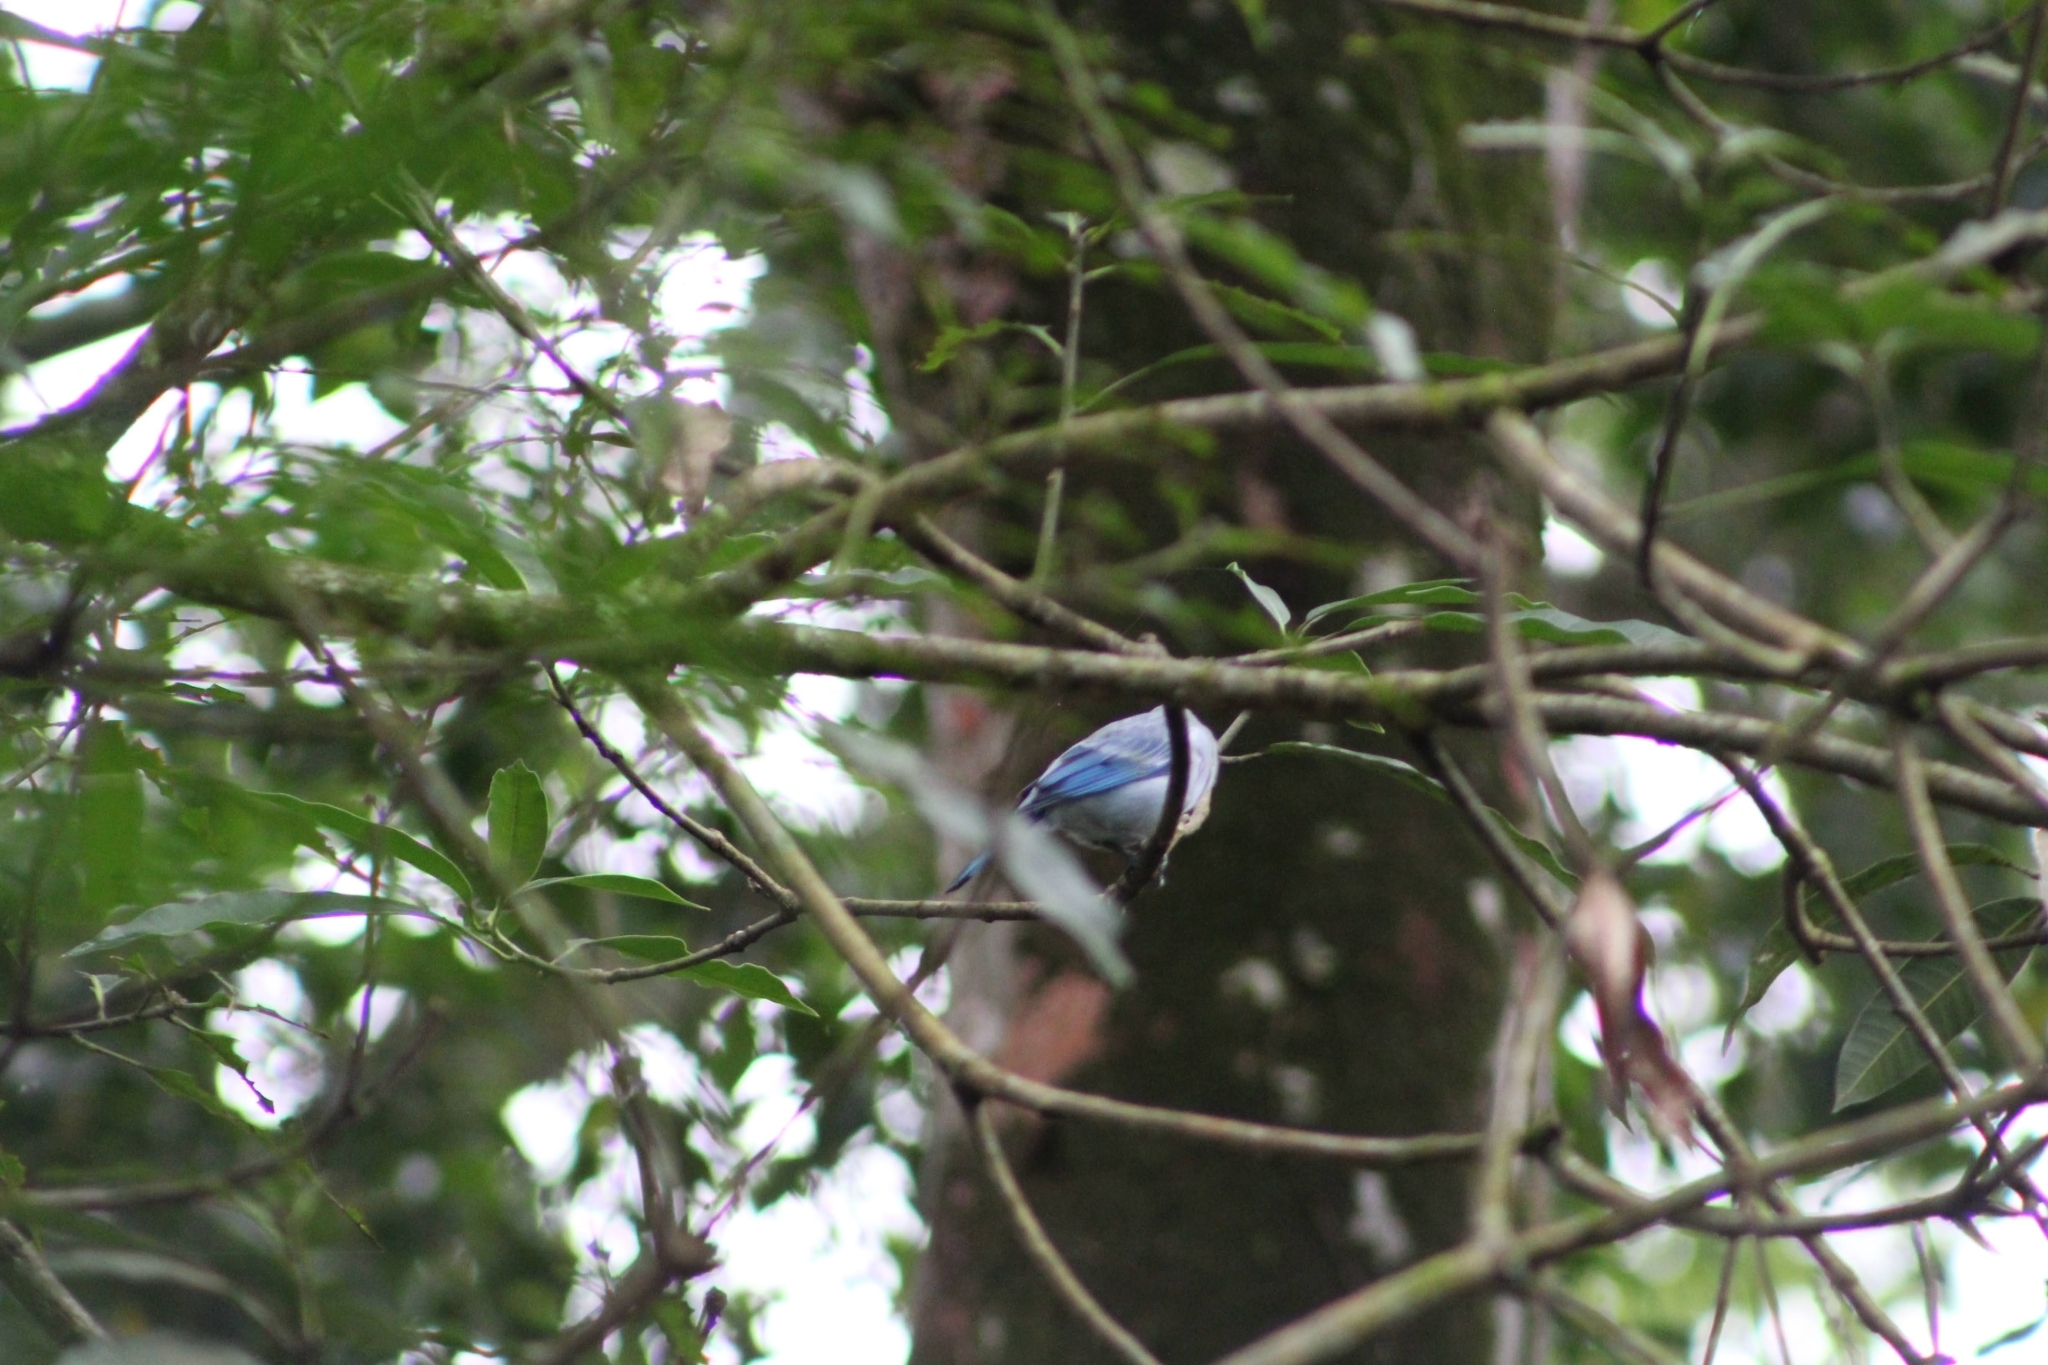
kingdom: Animalia
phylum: Chordata
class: Aves
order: Passeriformes
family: Thraupidae
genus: Thraupis
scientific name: Thraupis episcopus
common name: Blue-grey tanager
